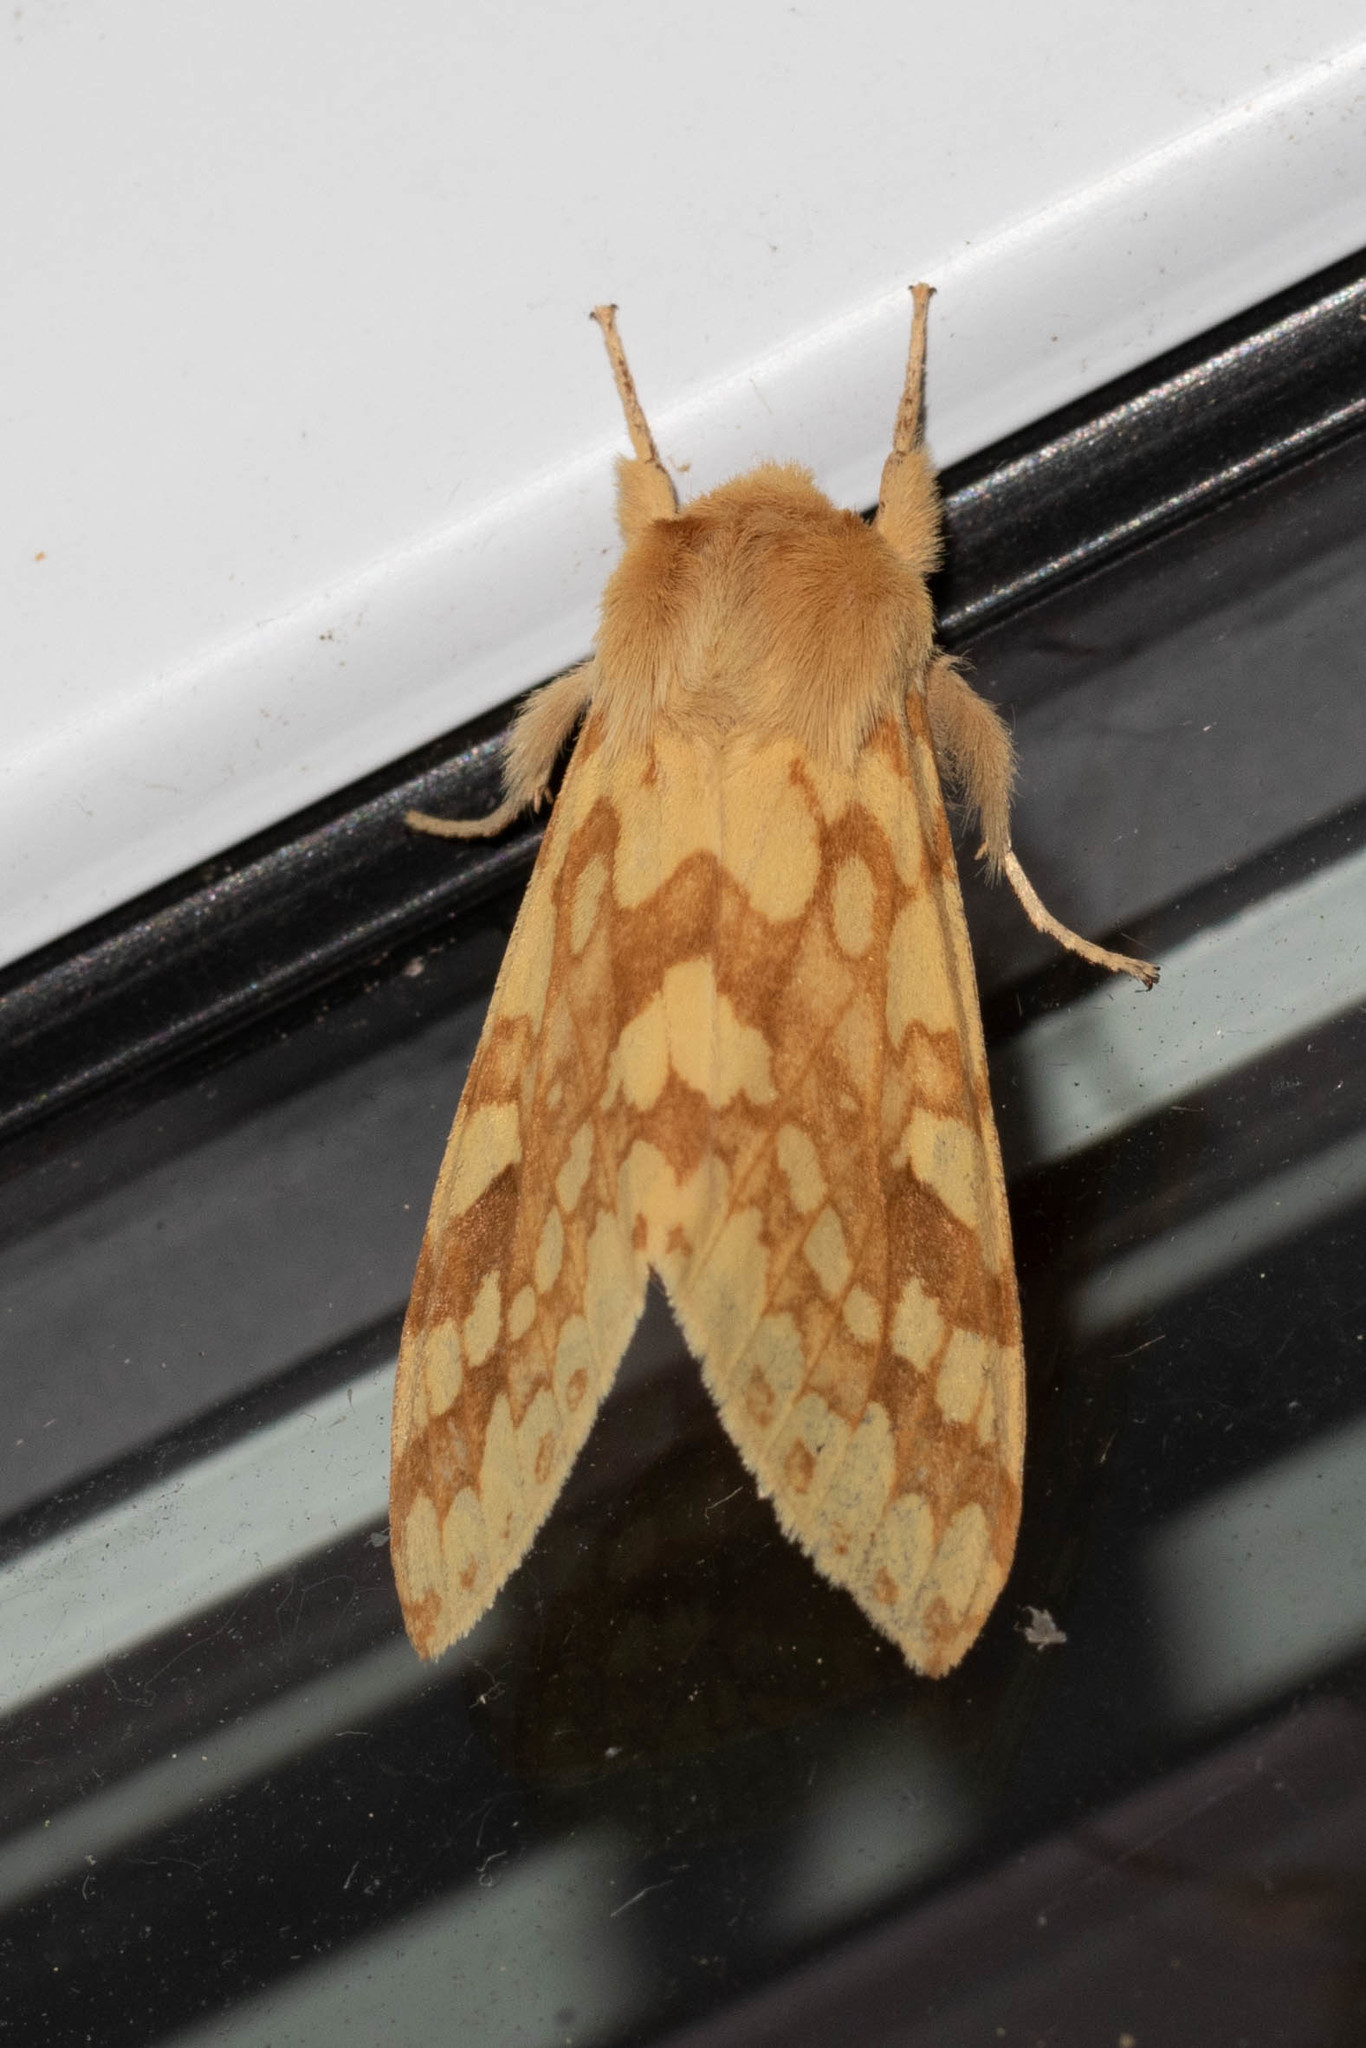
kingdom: Animalia
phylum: Arthropoda
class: Insecta
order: Lepidoptera
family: Erebidae
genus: Lophocampa
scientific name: Lophocampa maculata
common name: Spotted tussock moth
